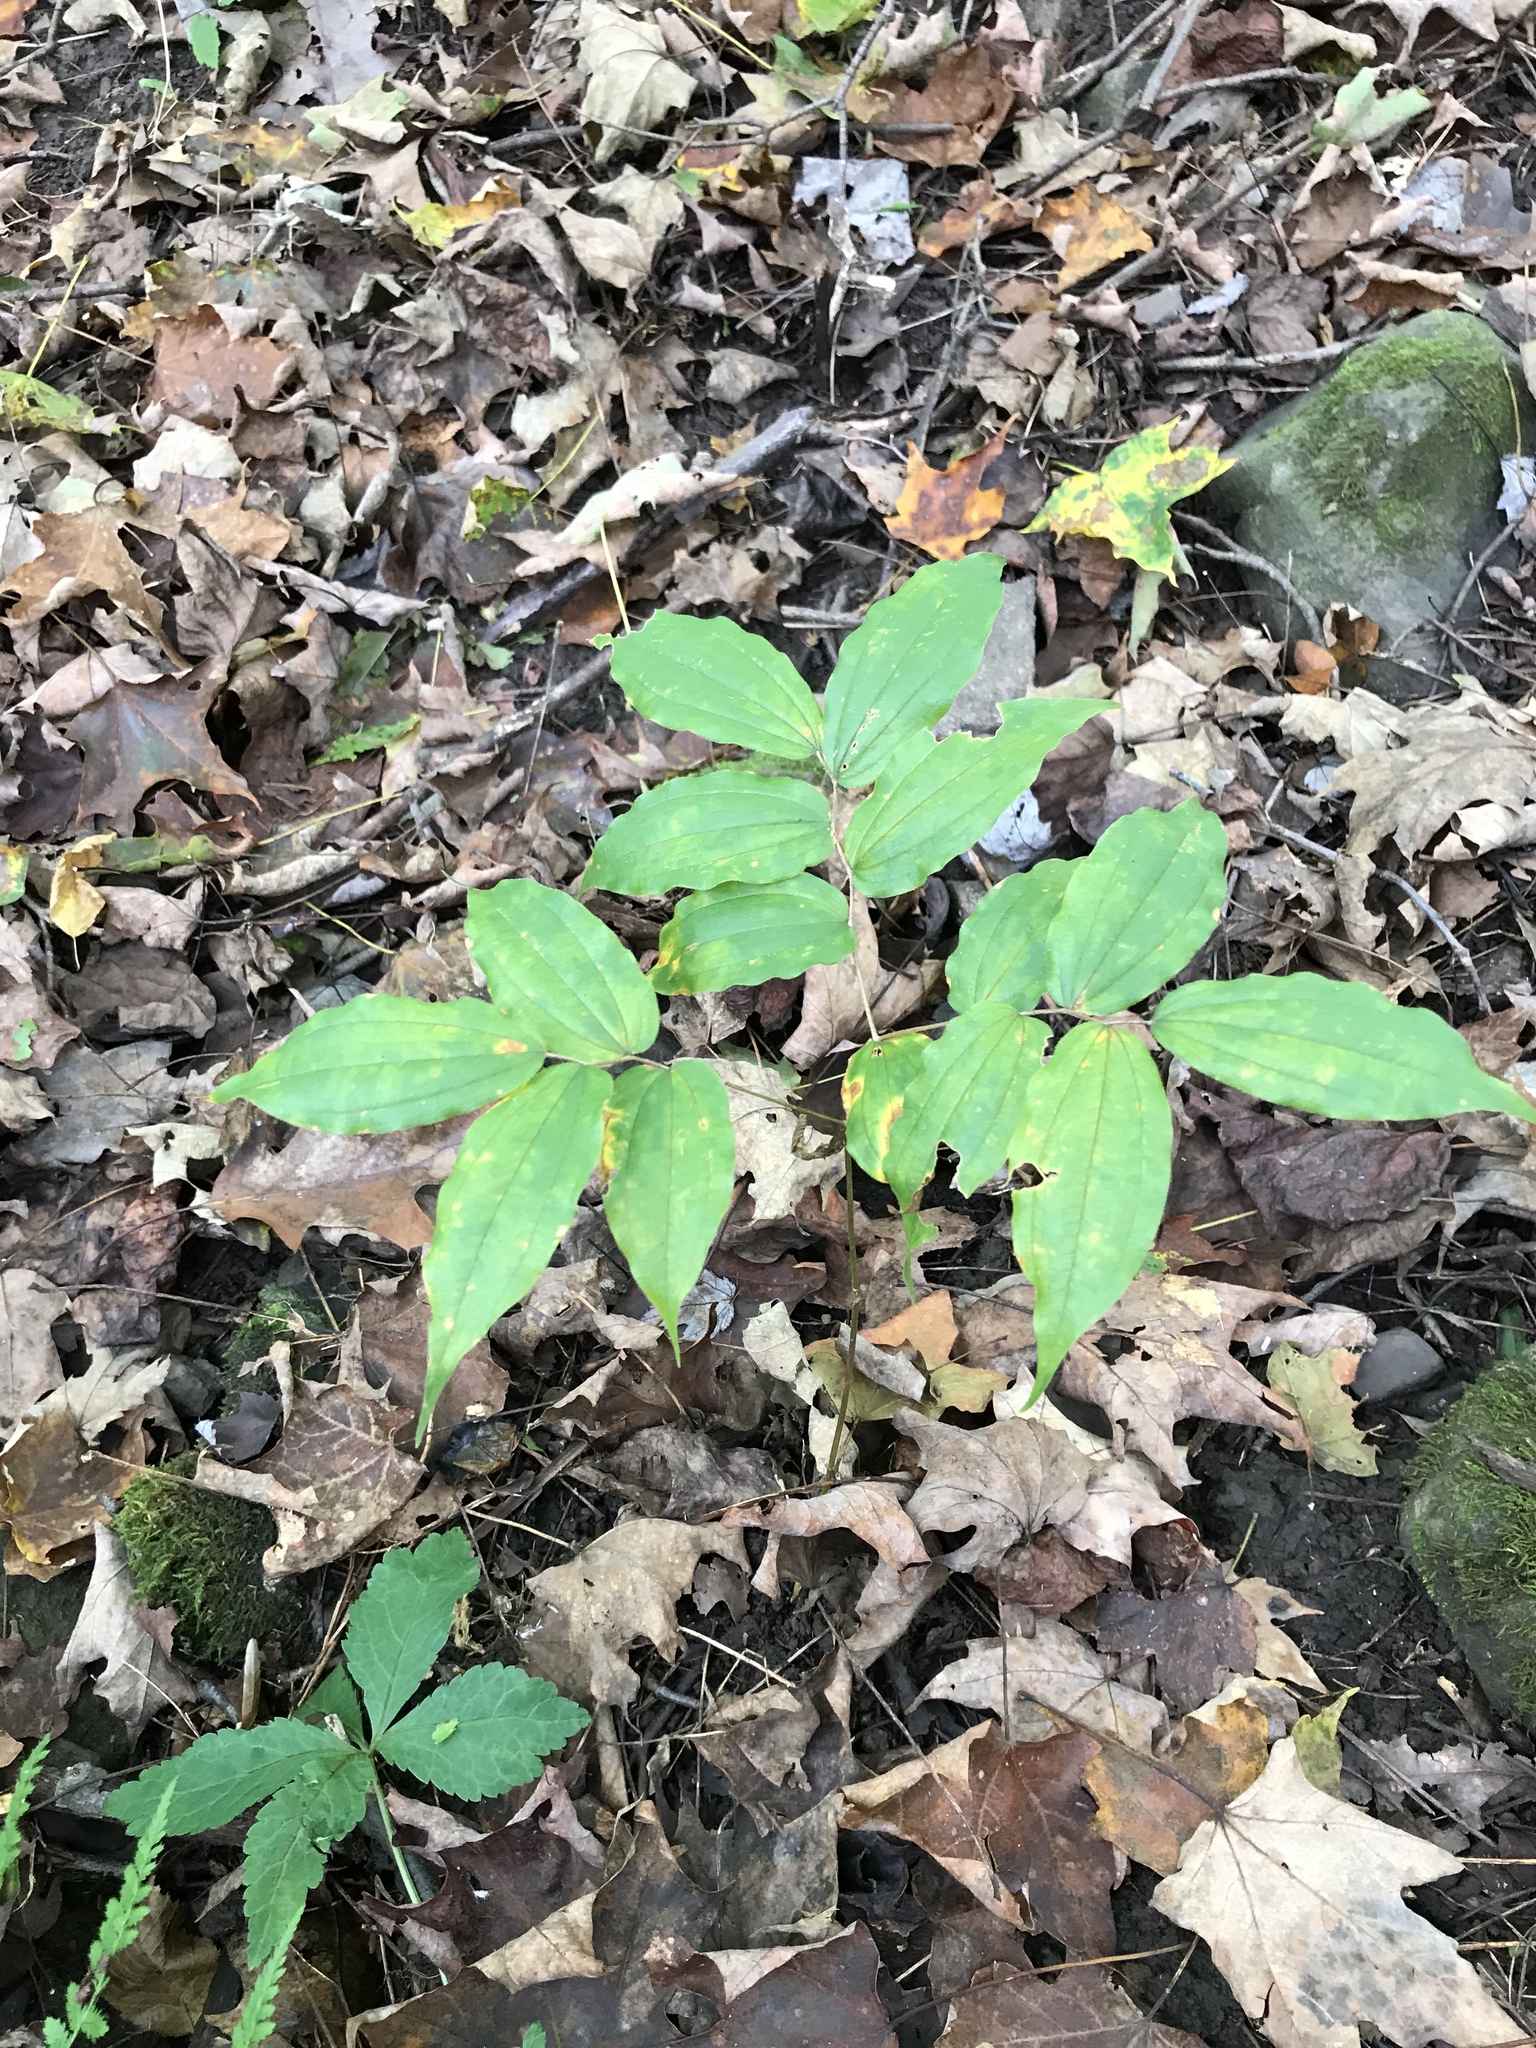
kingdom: Plantae
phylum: Tracheophyta
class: Liliopsida
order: Liliales
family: Liliaceae
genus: Prosartes
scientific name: Prosartes lanuginosa
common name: Hairy mandarin
